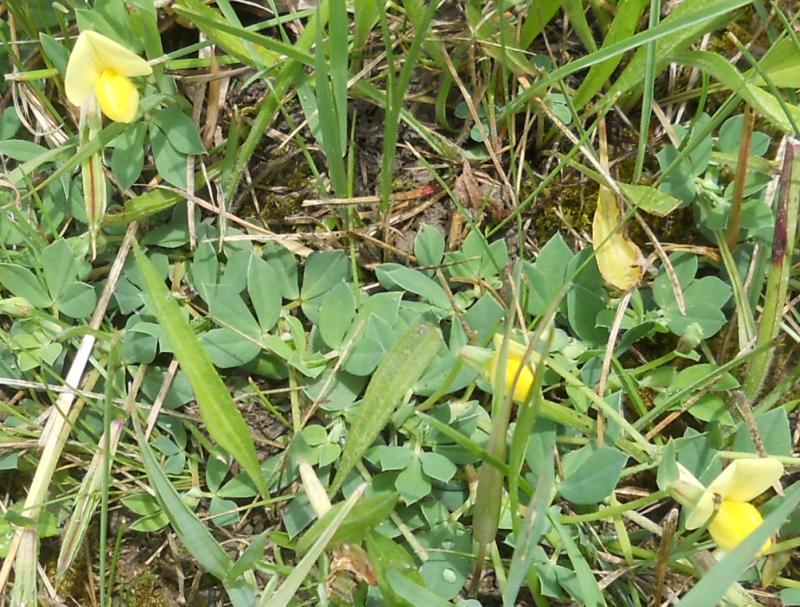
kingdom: Plantae
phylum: Tracheophyta
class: Magnoliopsida
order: Fabales
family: Fabaceae
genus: Lotus
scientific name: Lotus maritimus
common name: Dragon's-teeth
